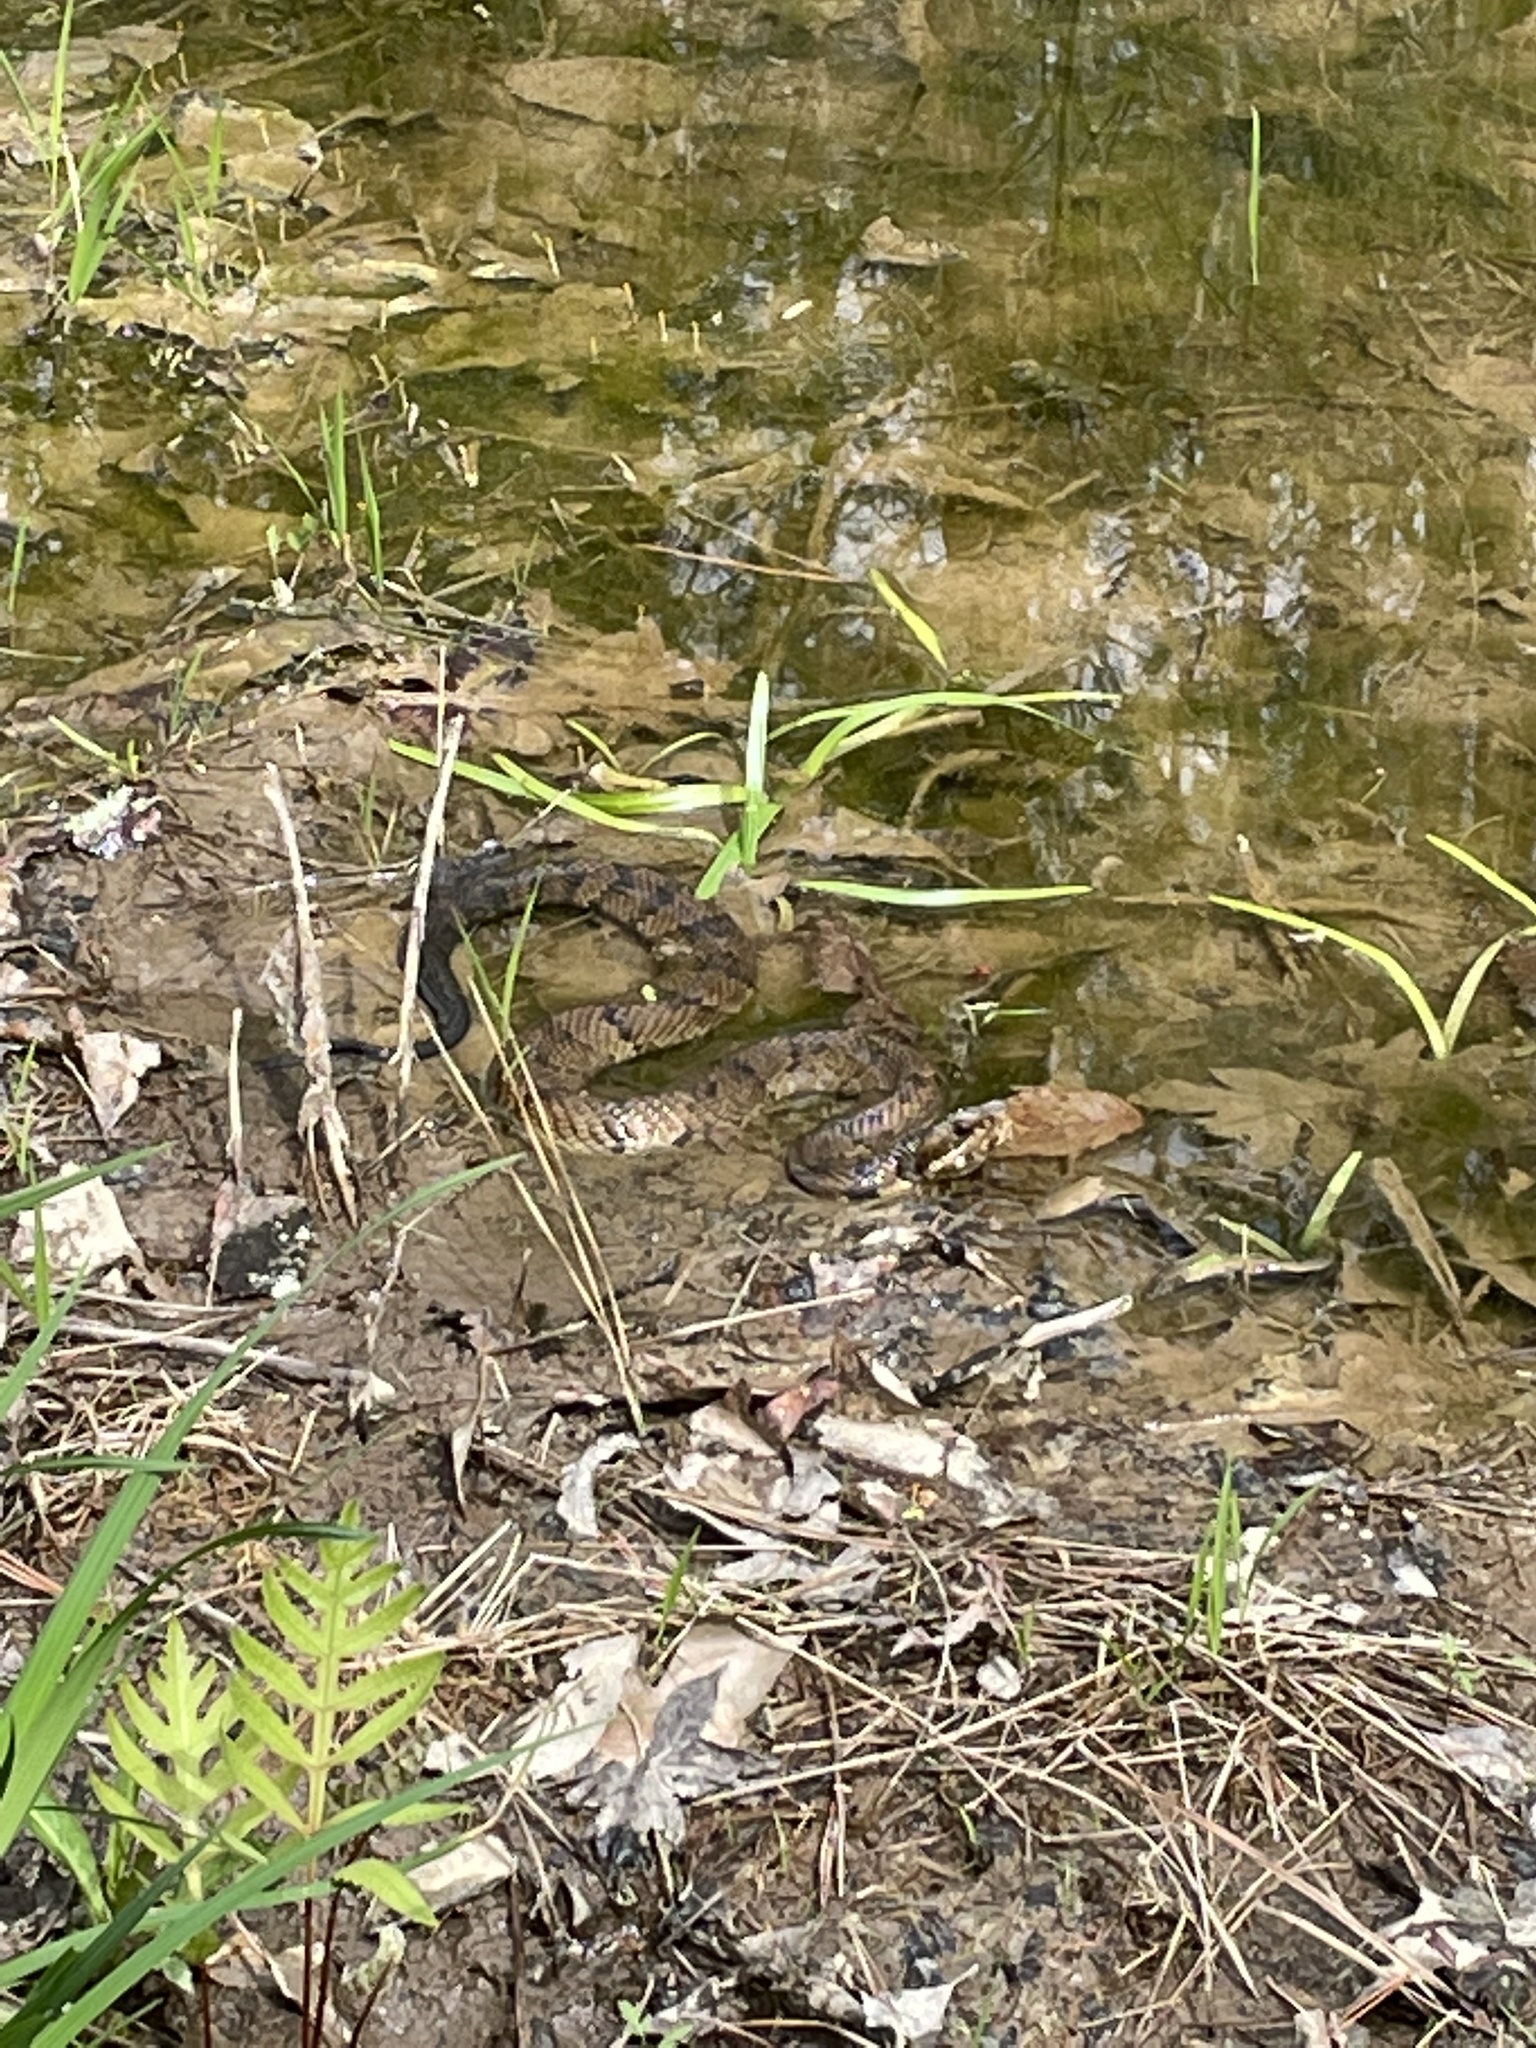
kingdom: Animalia
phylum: Chordata
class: Squamata
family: Viperidae
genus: Agkistrodon
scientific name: Agkistrodon piscivorus
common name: Cottonmouth
